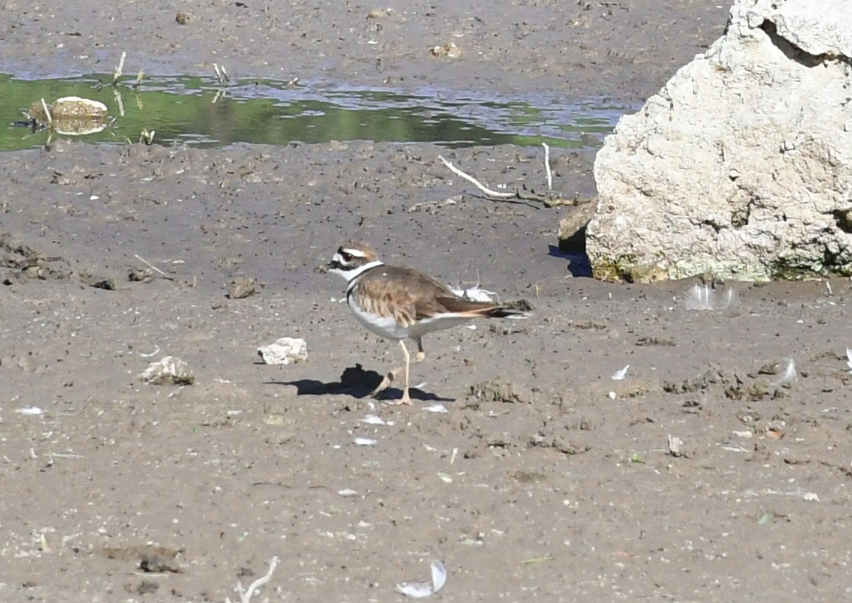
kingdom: Animalia
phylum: Chordata
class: Aves
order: Charadriiformes
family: Charadriidae
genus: Charadrius
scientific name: Charadrius vociferus
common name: Killdeer
